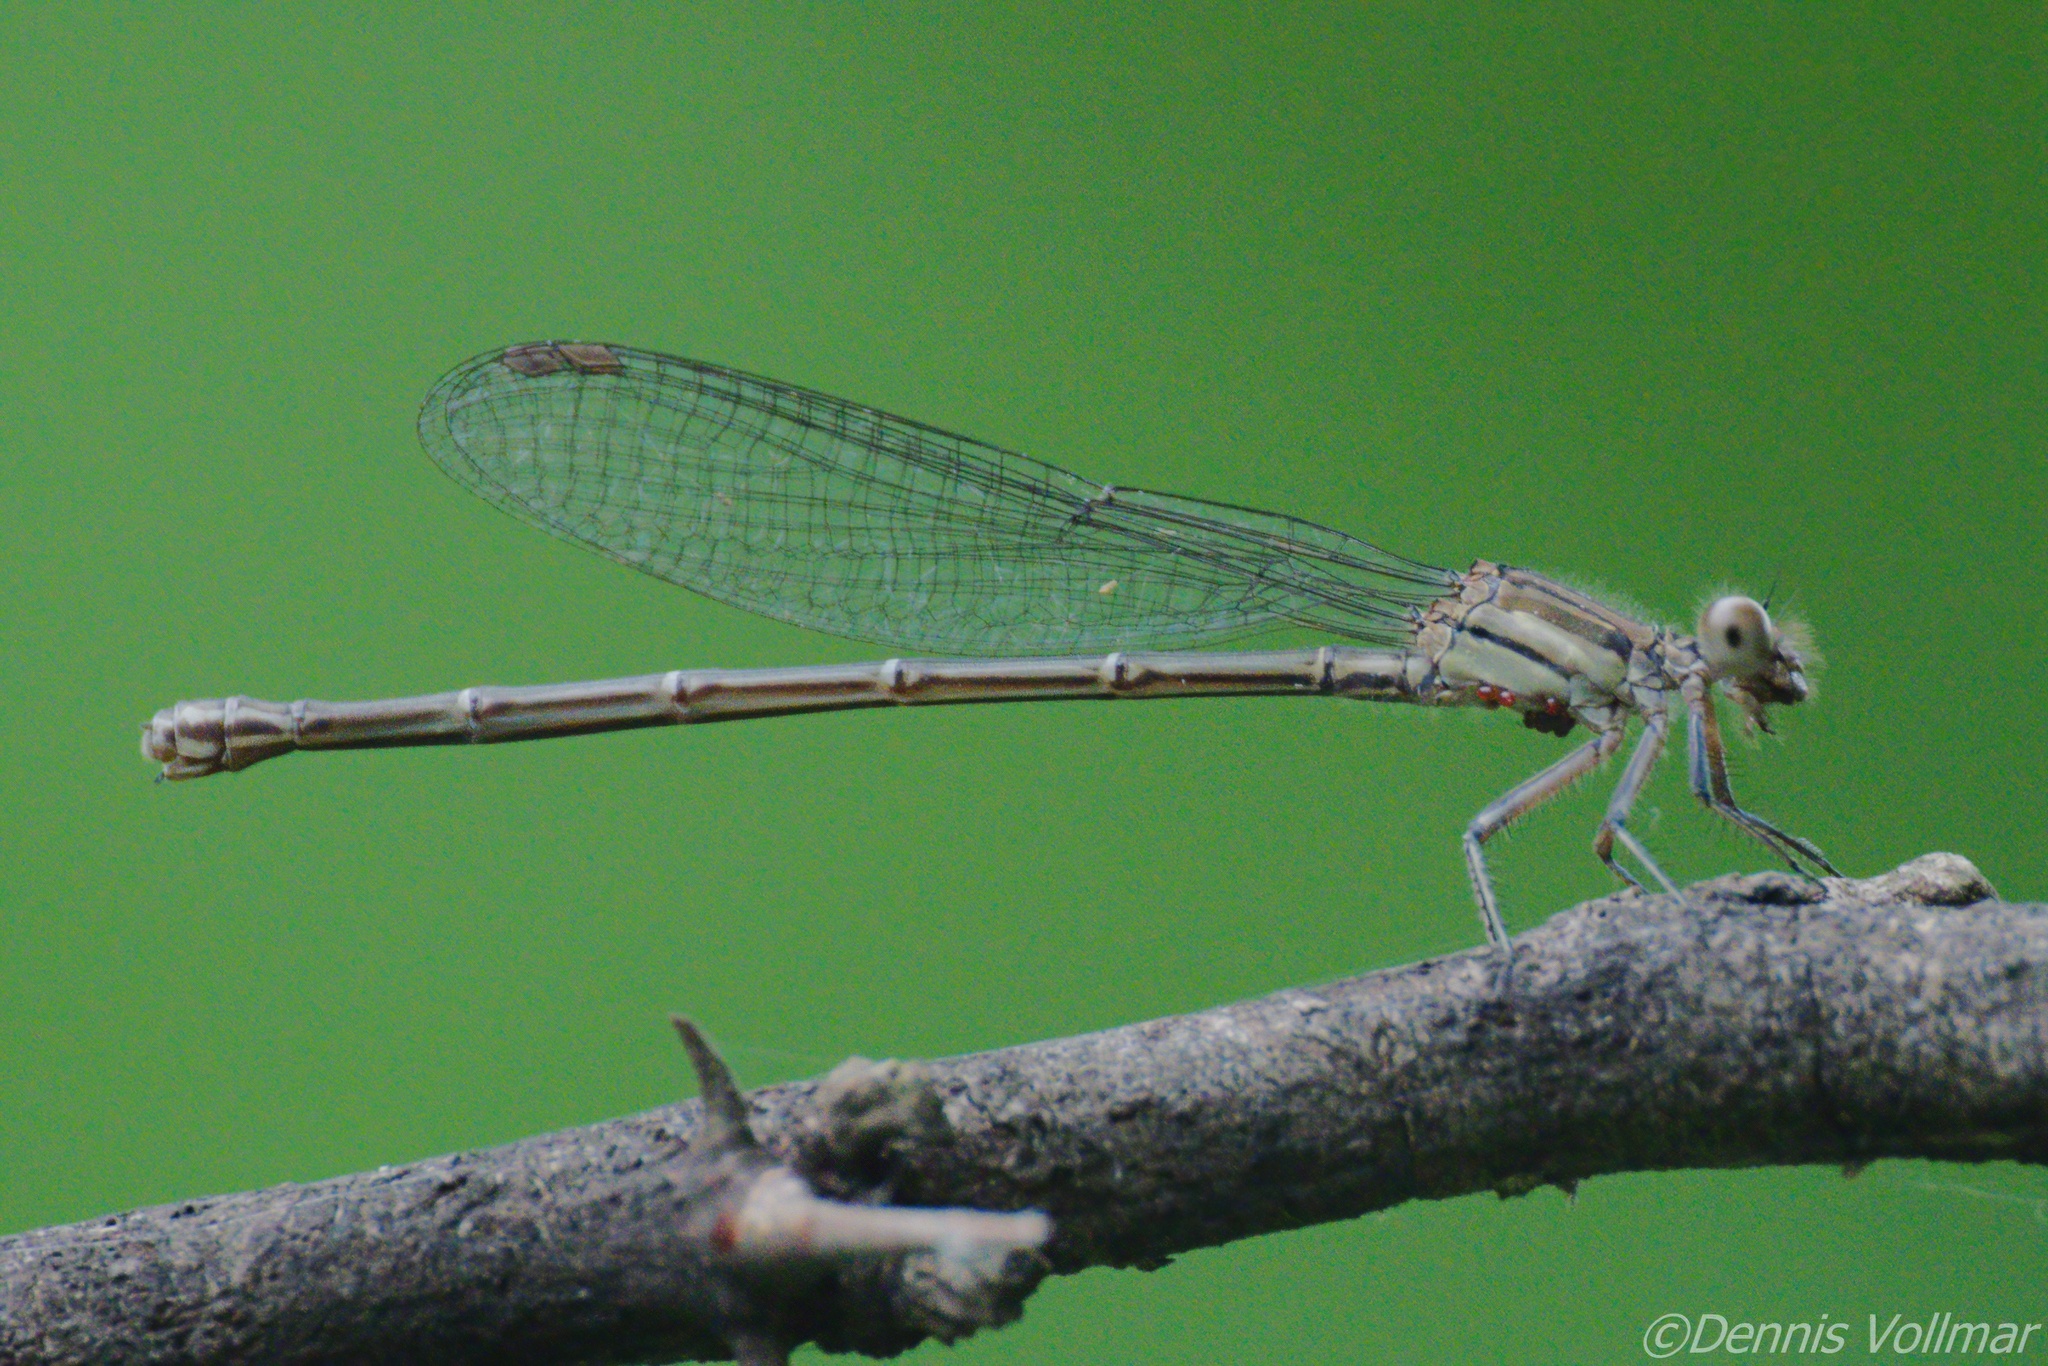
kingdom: Animalia
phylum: Arthropoda
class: Insecta
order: Odonata
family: Coenagrionidae
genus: Argia
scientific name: Argia translata
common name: Dusky dancer
